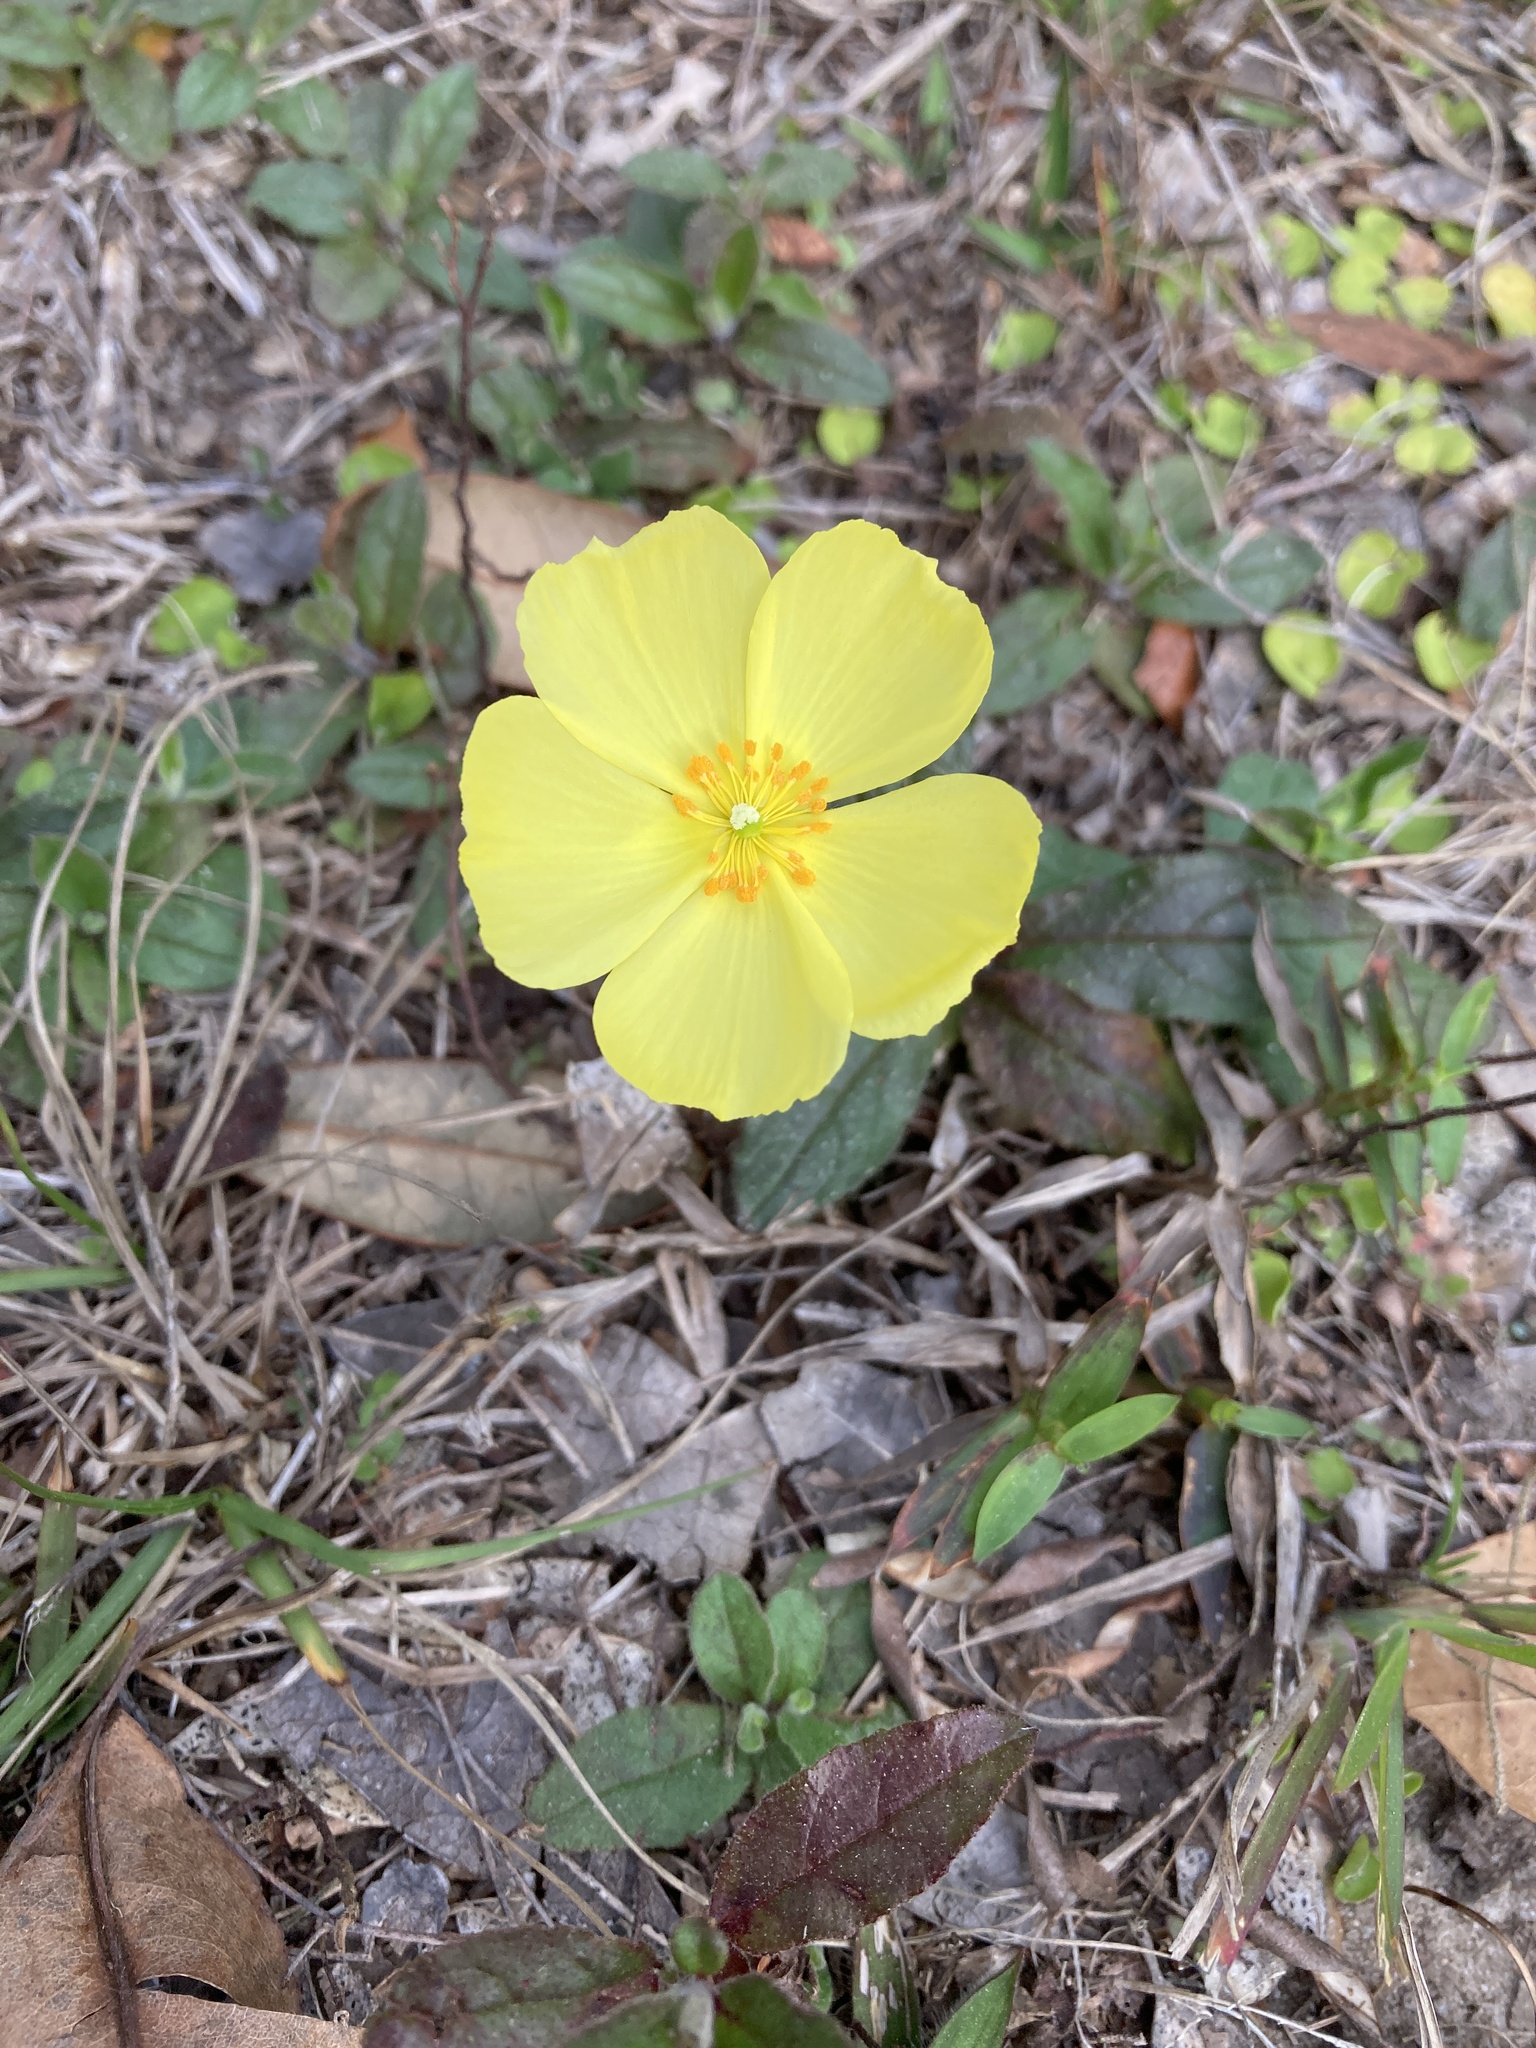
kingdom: Plantae
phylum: Tracheophyta
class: Magnoliopsida
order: Malvales
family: Cistaceae
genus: Crocanthemum
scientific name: Crocanthemum carolinianum
